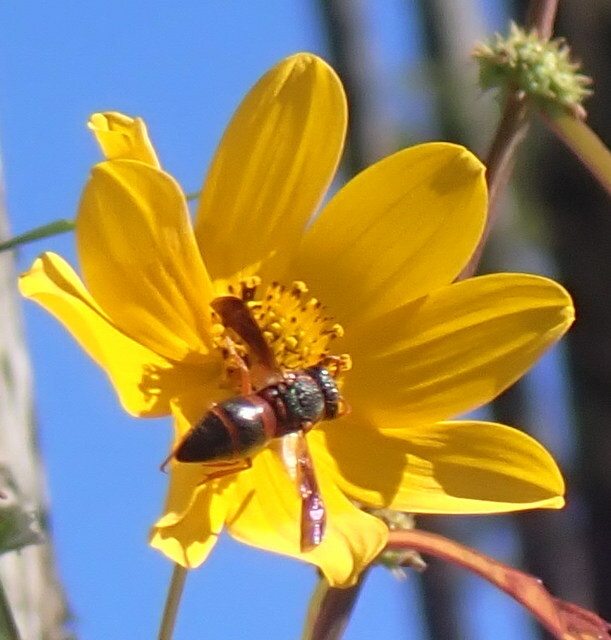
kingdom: Animalia
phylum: Arthropoda
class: Insecta
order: Hymenoptera
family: Eumenidae
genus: Pachodynerus
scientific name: Pachodynerus erynnis
